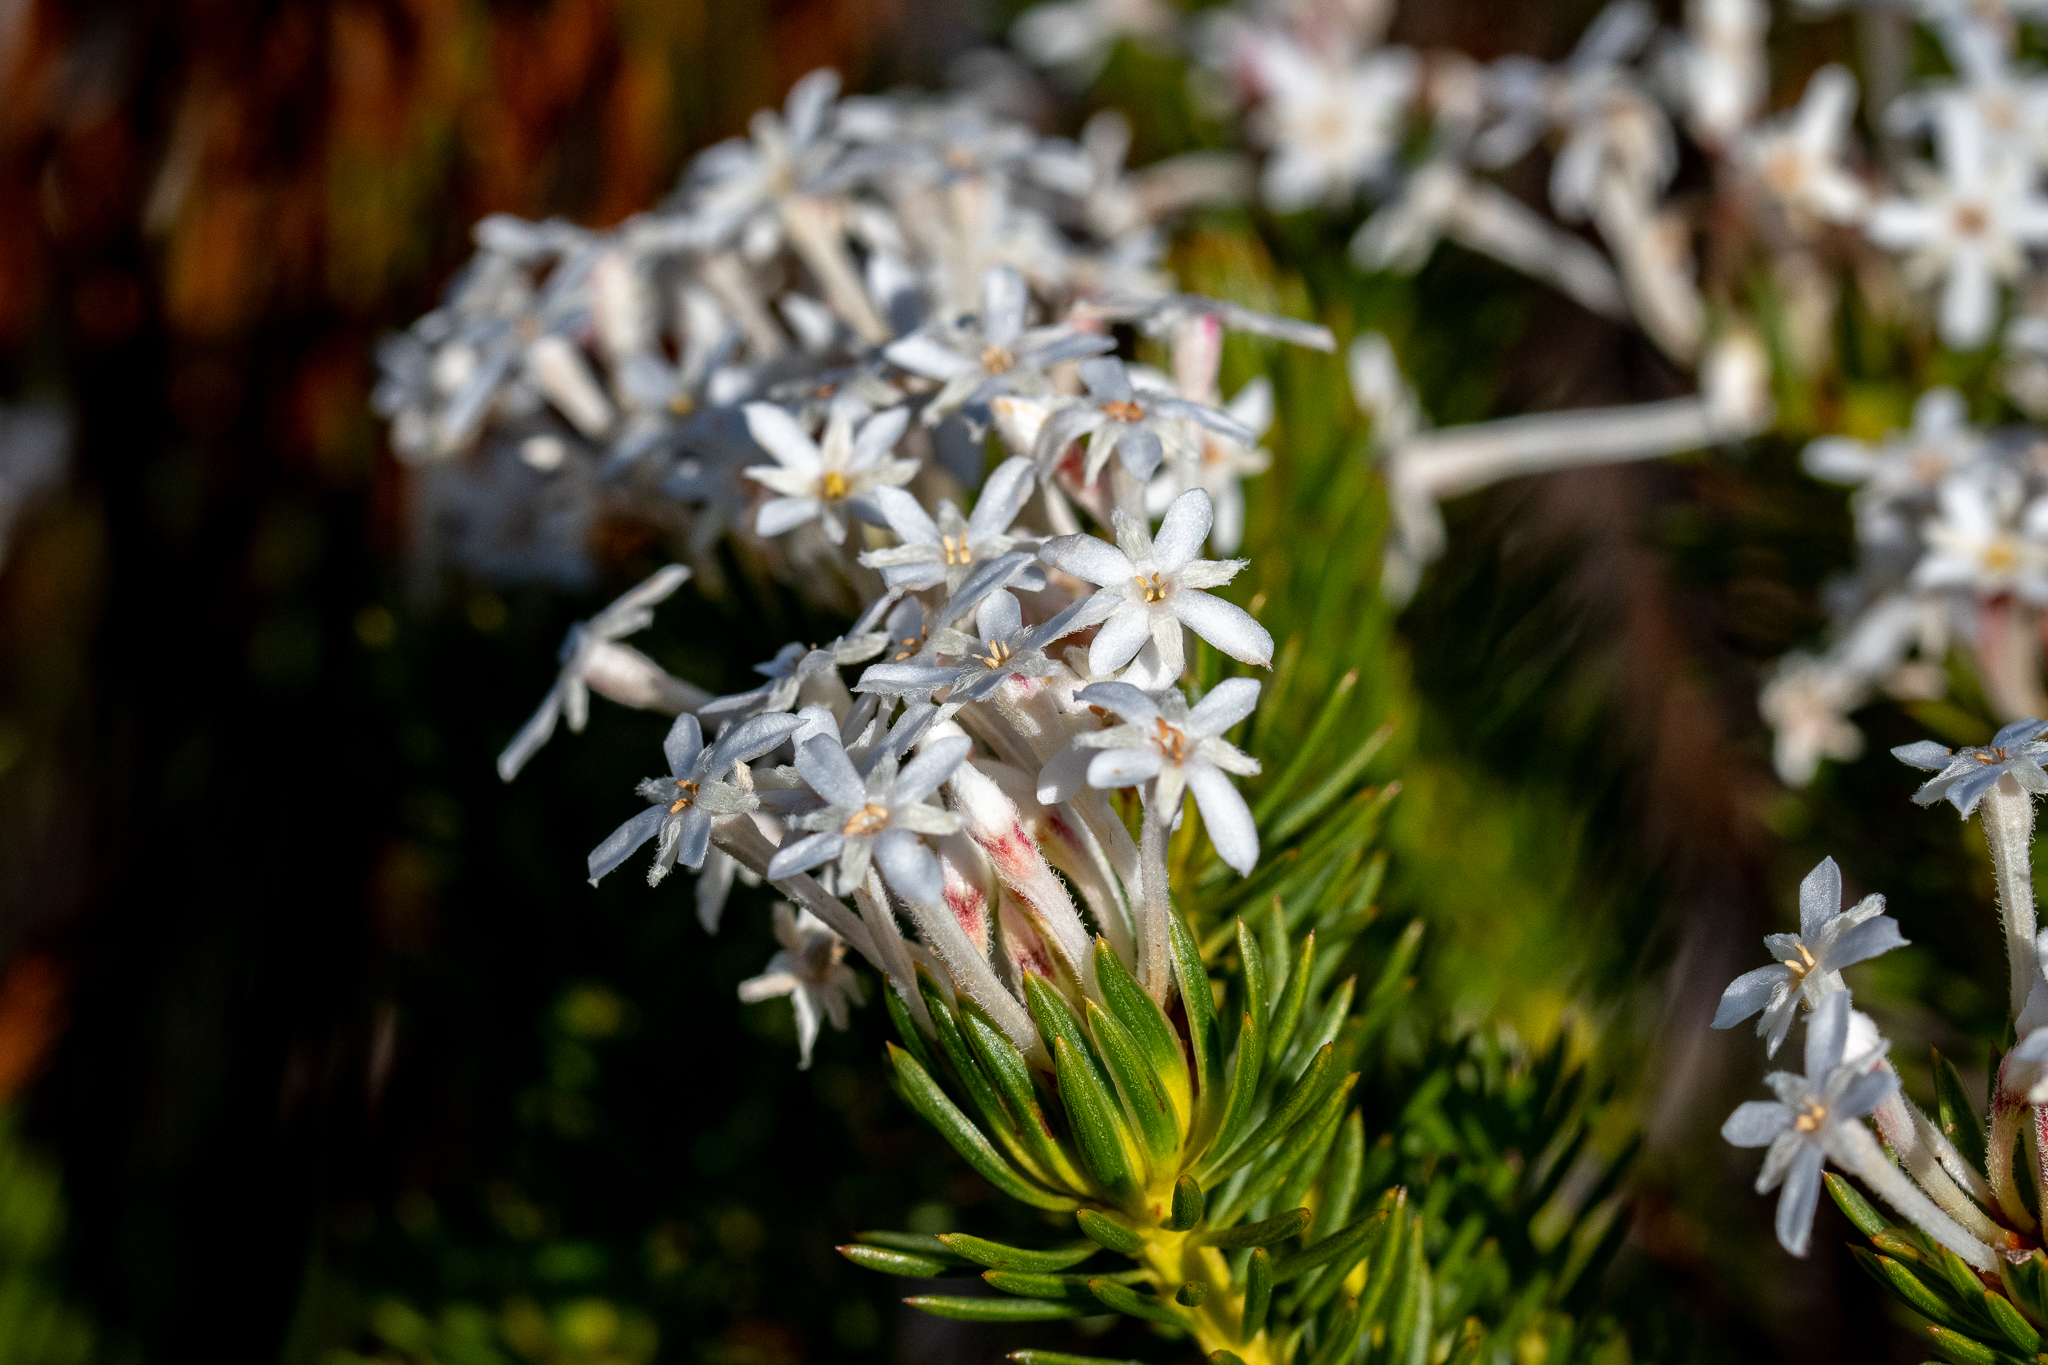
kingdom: Plantae
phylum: Tracheophyta
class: Magnoliopsida
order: Malvales
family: Thymelaeaceae
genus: Gnidia
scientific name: Gnidia pinifolia
